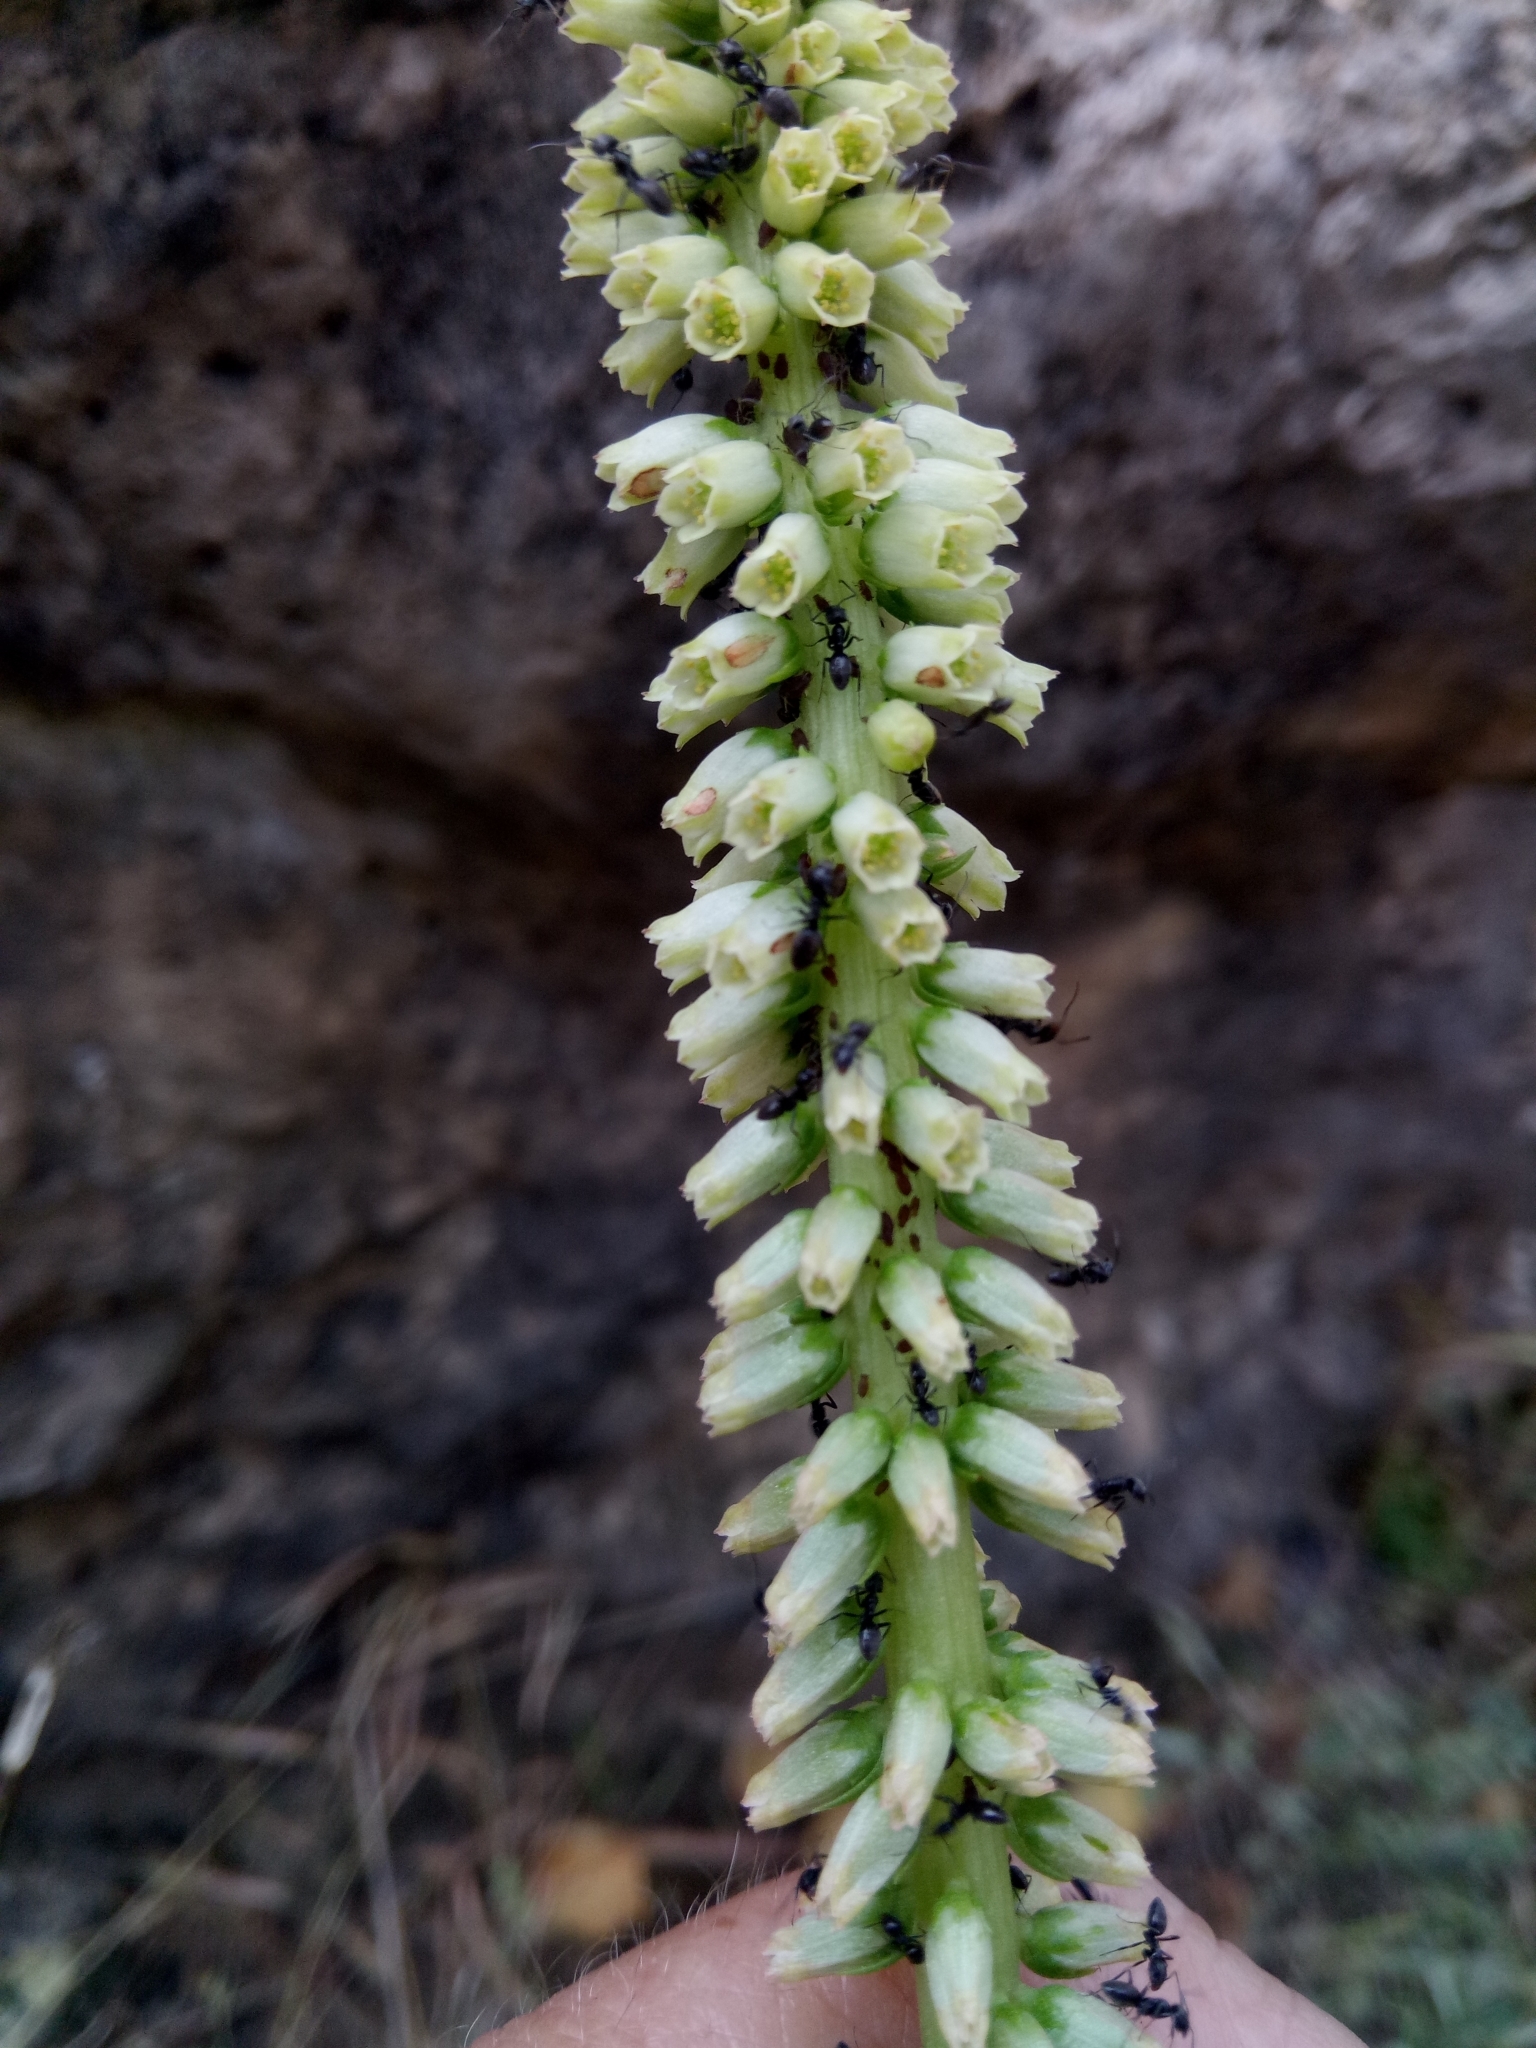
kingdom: Plantae
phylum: Tracheophyta
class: Magnoliopsida
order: Saxifragales
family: Crassulaceae
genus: Umbilicus
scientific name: Umbilicus horizontalis
